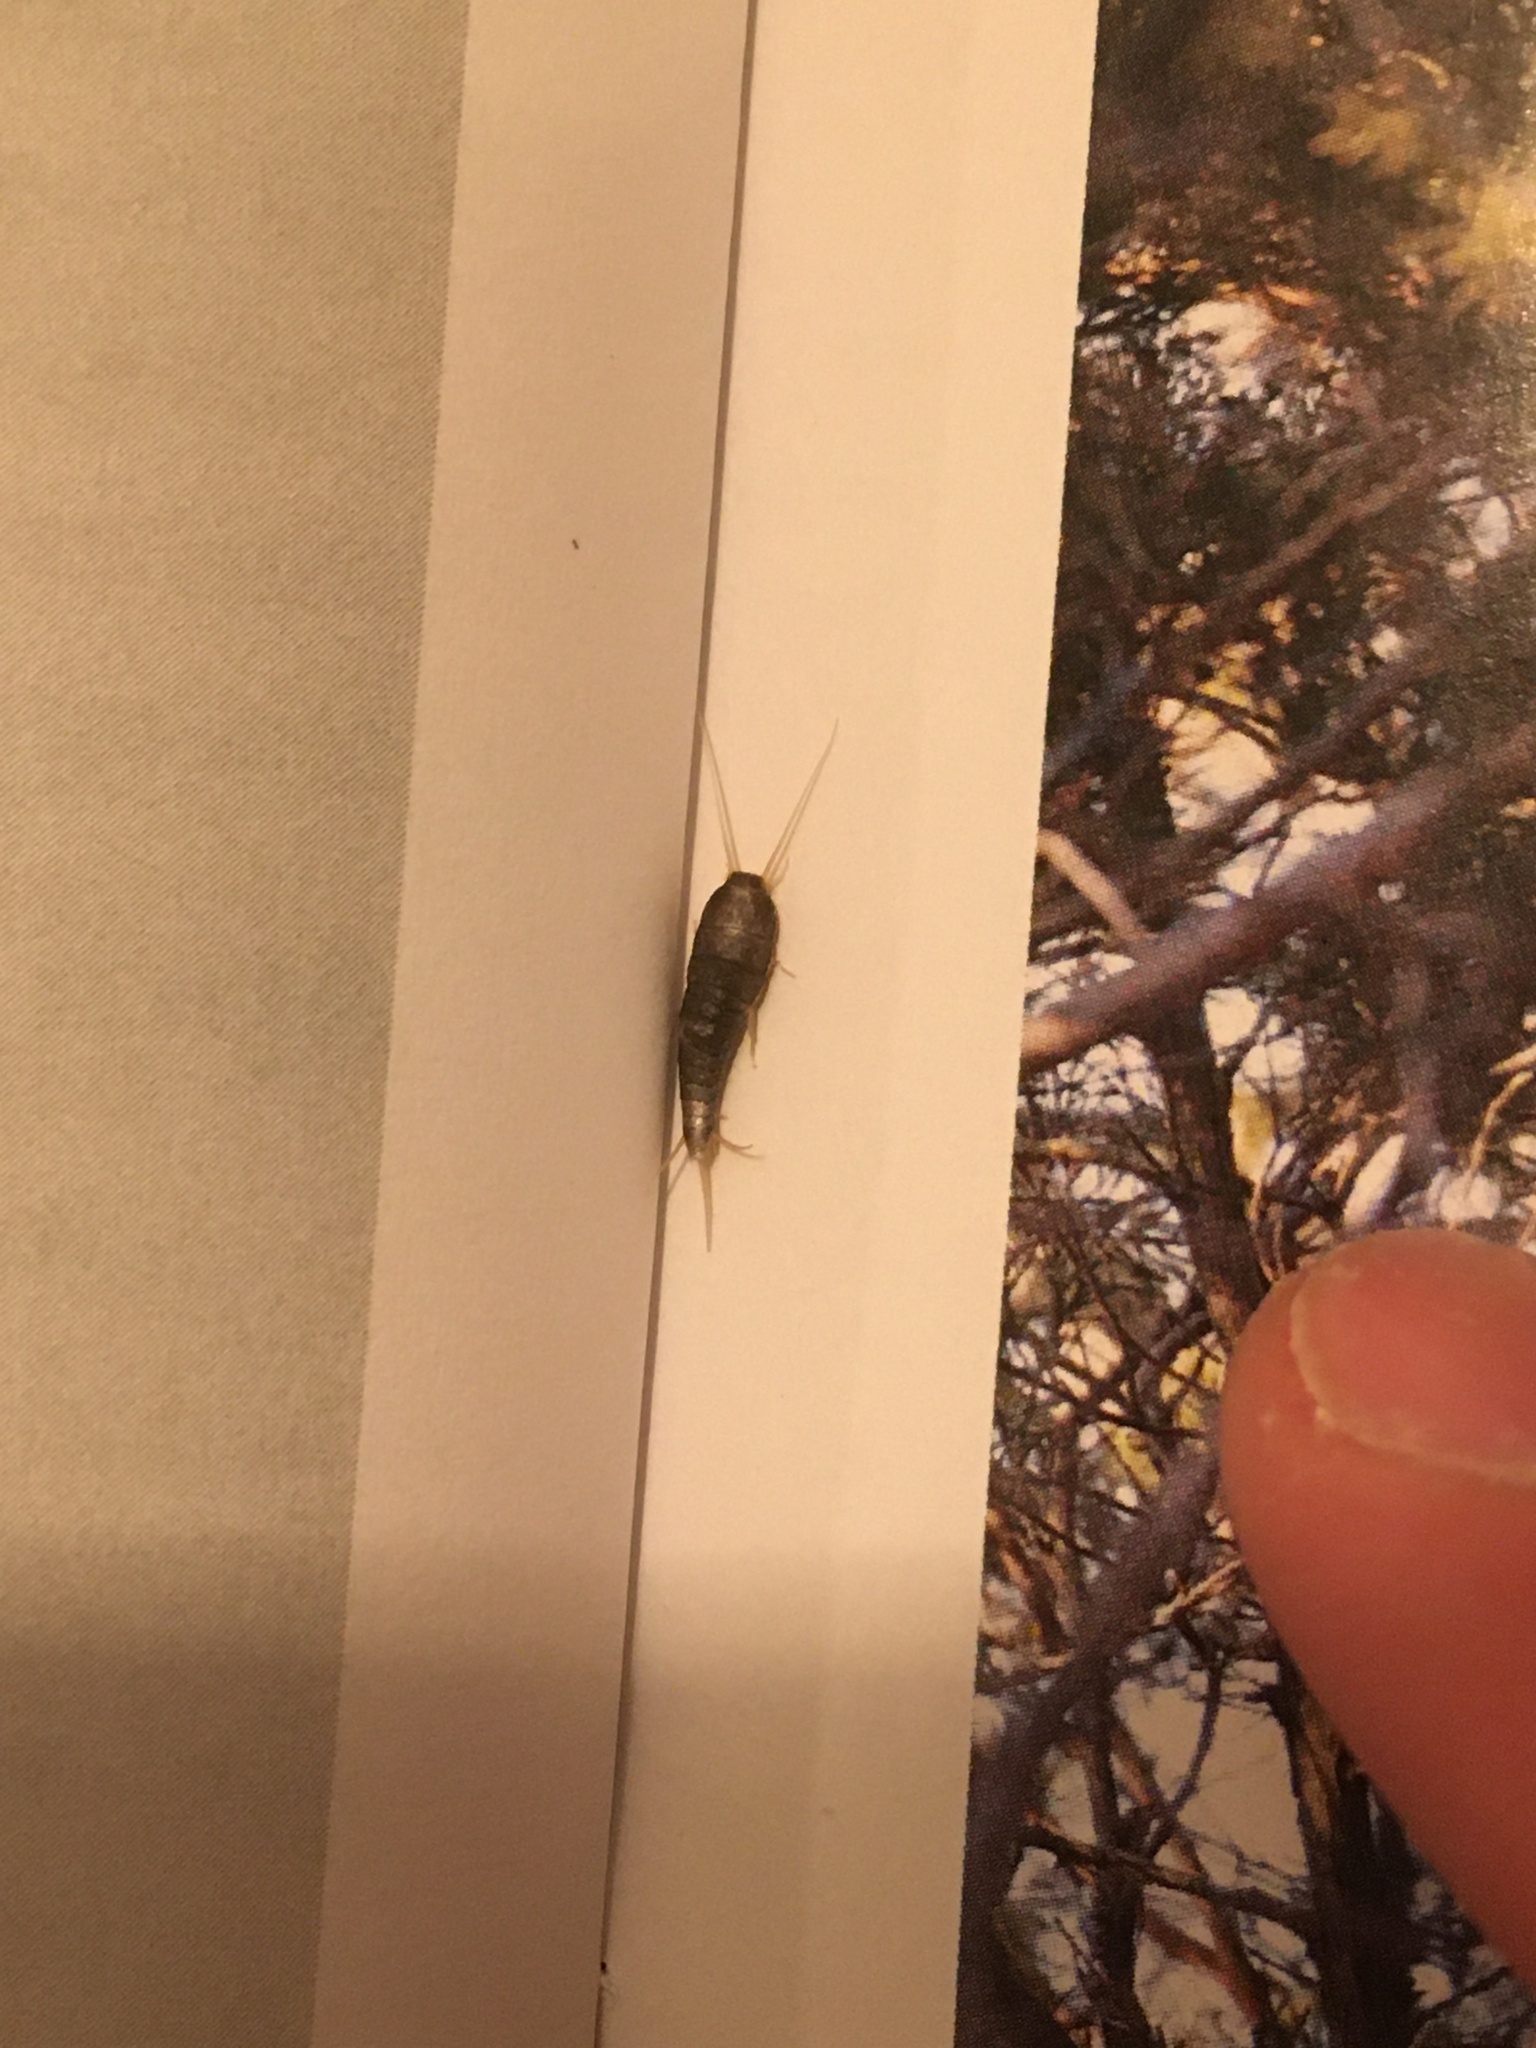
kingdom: Animalia
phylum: Arthropoda
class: Insecta
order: Zygentoma
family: Lepismatidae
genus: Lepisma
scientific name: Lepisma saccharinum
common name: Silverfish
